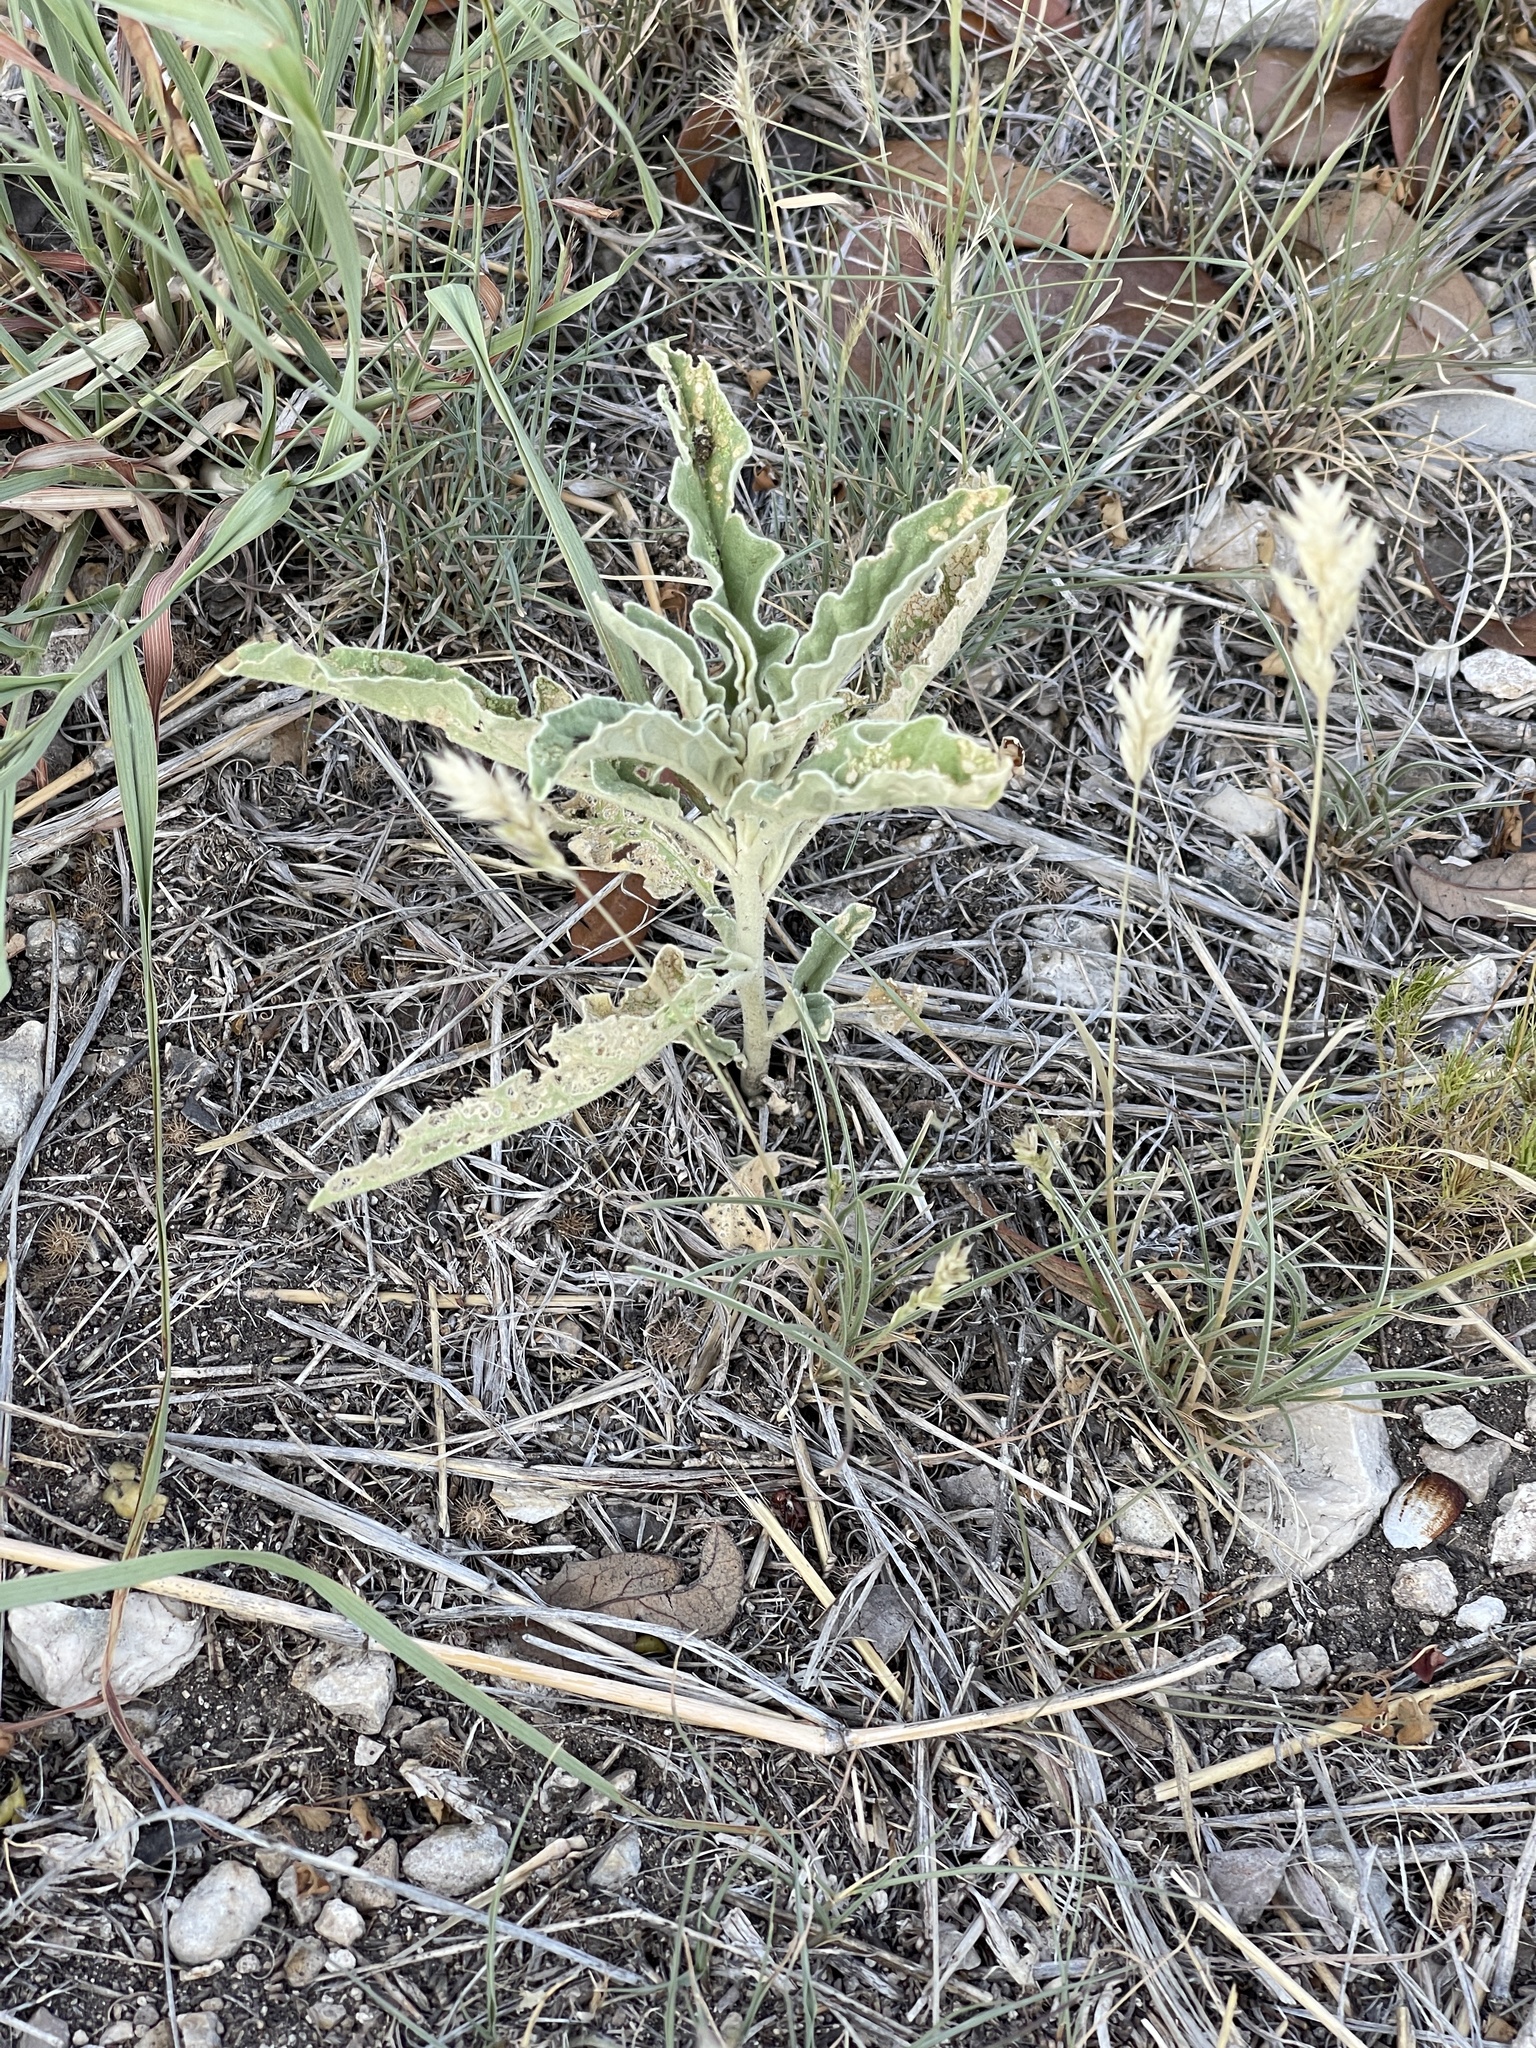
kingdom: Plantae
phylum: Tracheophyta
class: Magnoliopsida
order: Solanales
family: Solanaceae
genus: Solanum
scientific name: Solanum elaeagnifolium
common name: Silverleaf nightshade
